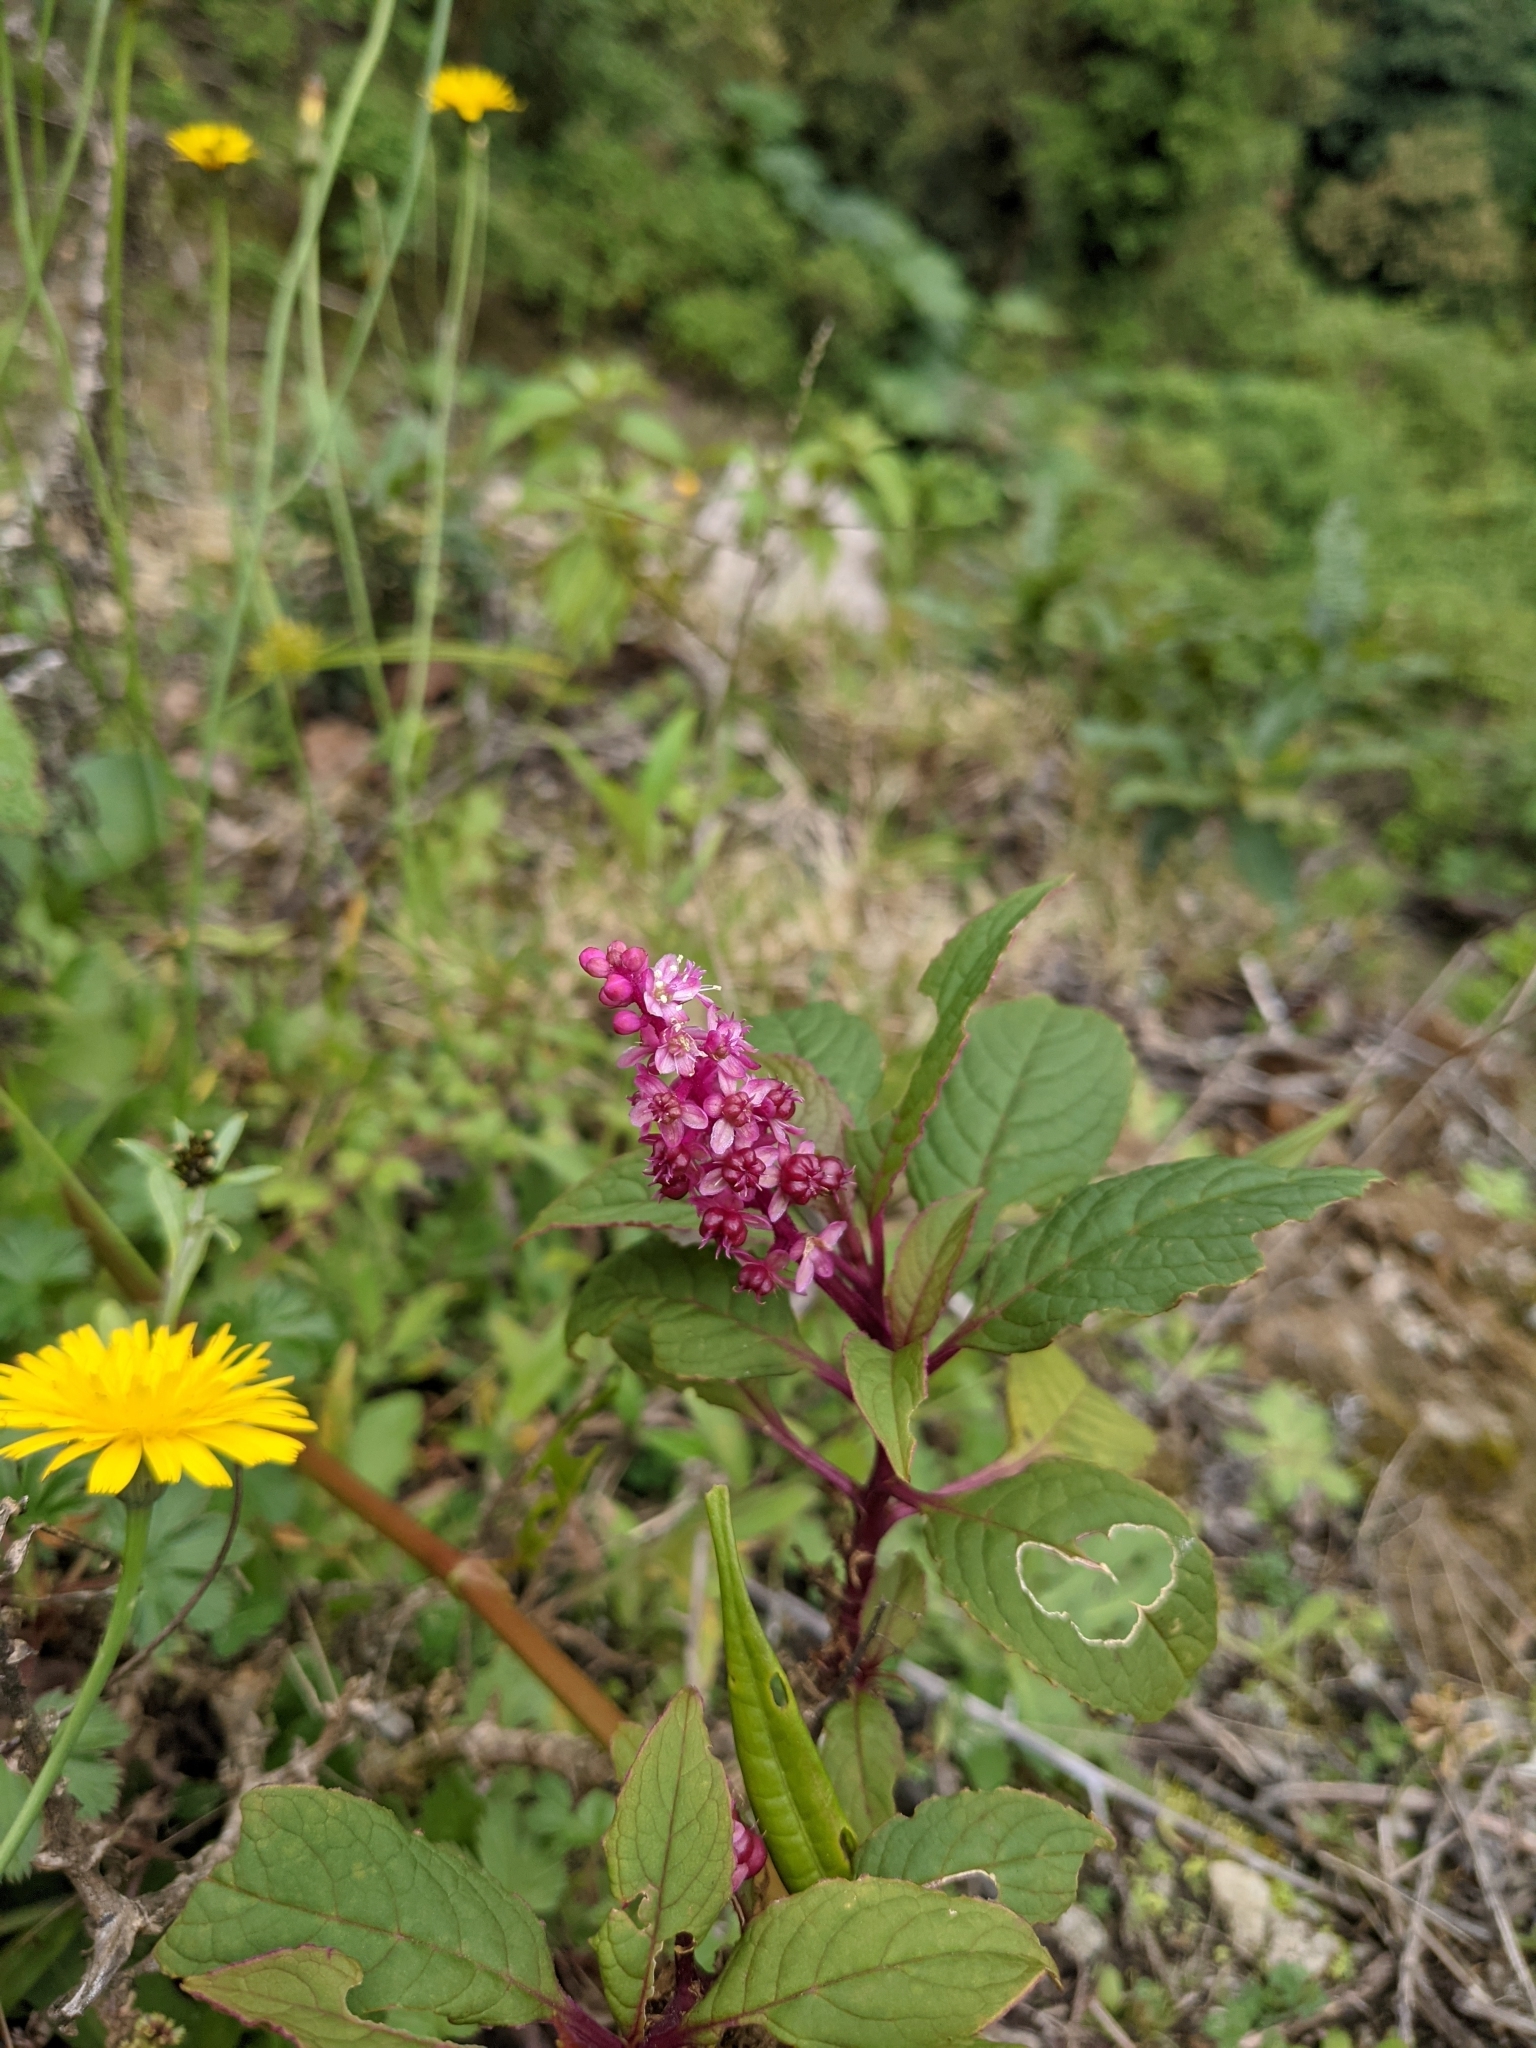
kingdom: Plantae
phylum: Tracheophyta
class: Magnoliopsida
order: Caryophyllales
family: Phytolaccaceae
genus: Phytolacca
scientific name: Phytolacca rugosa
